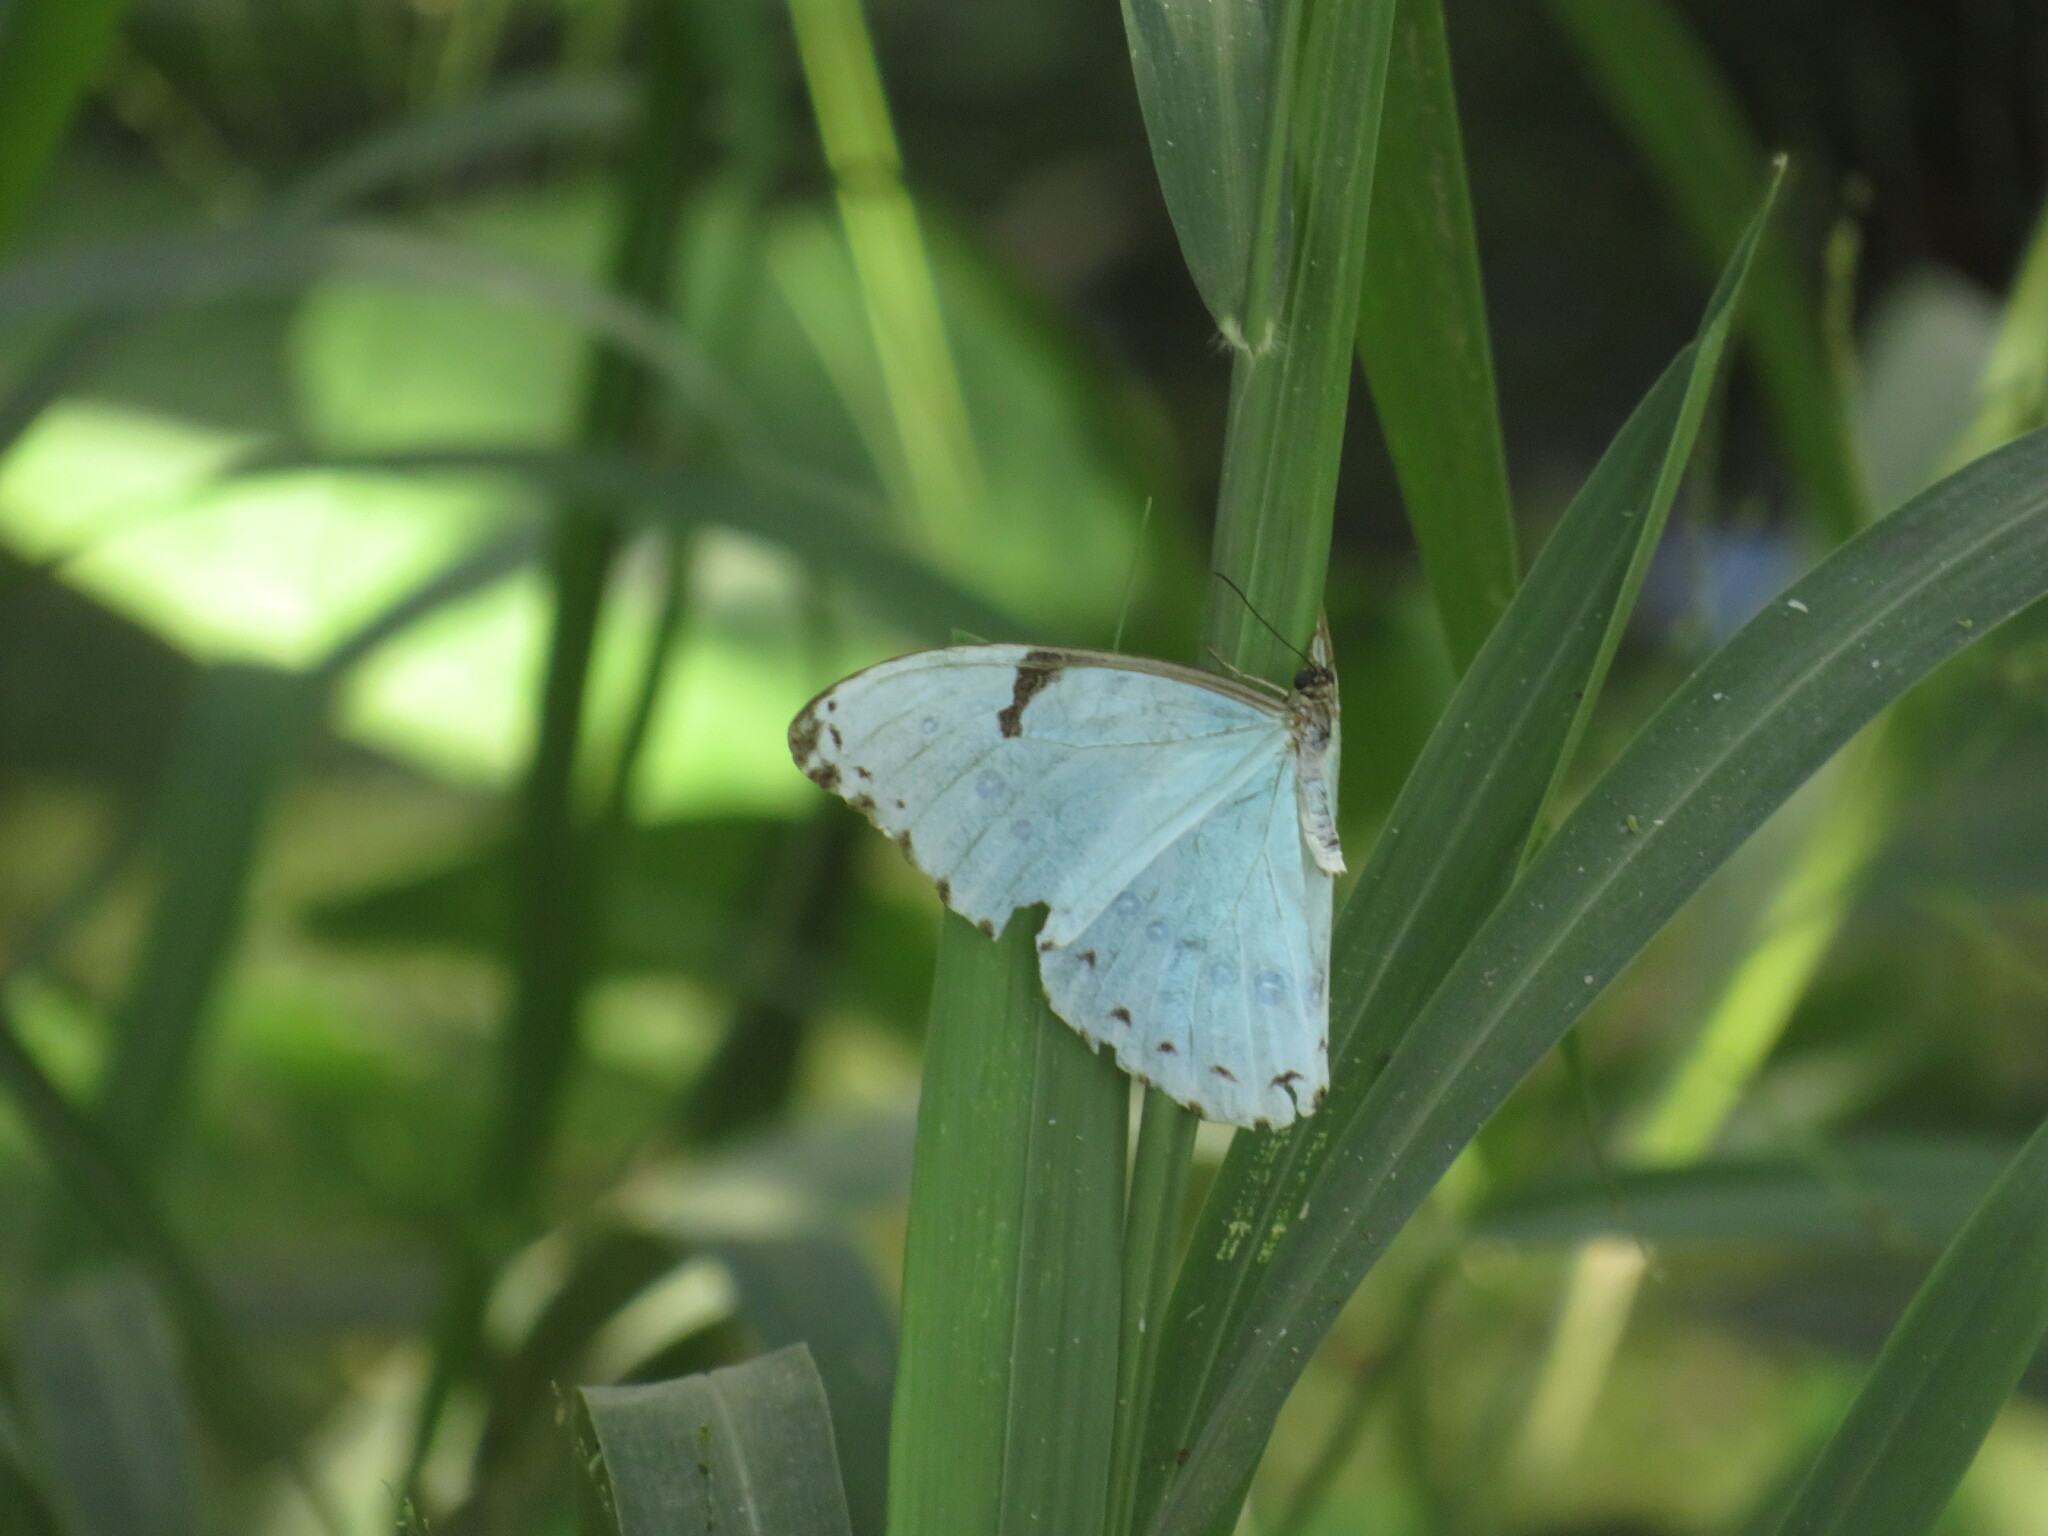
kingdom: Animalia
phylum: Arthropoda
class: Insecta
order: Lepidoptera
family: Nymphalidae
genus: Morpho
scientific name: Morpho epistrophus
